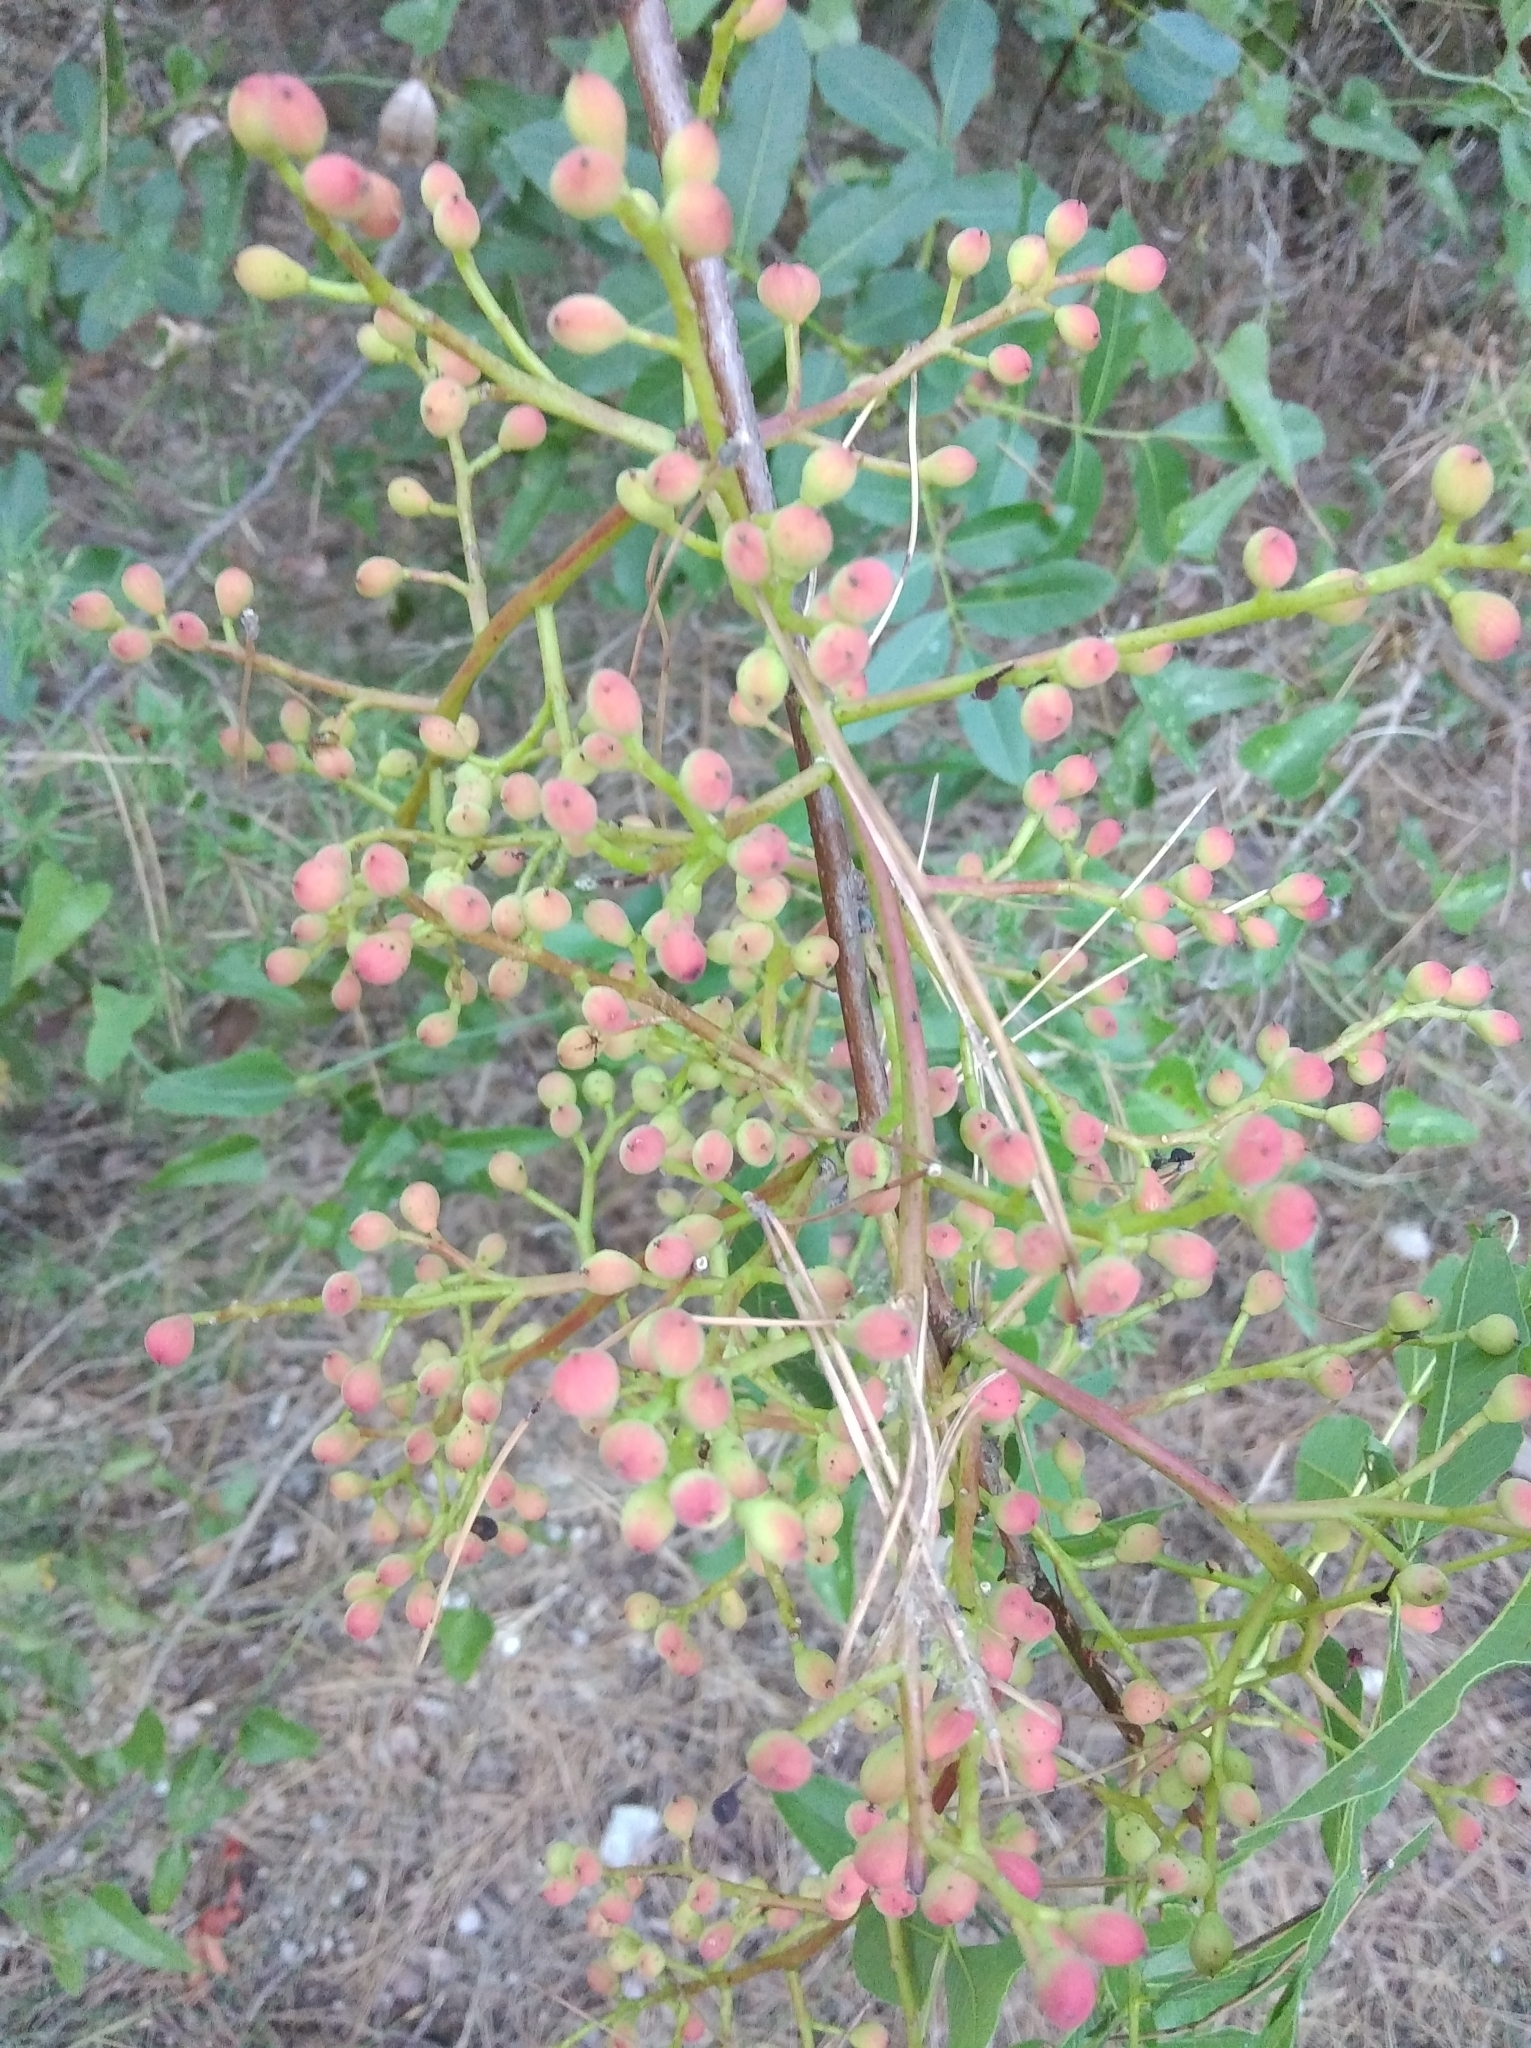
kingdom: Plantae
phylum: Tracheophyta
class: Magnoliopsida
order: Sapindales
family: Anacardiaceae
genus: Pistacia
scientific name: Pistacia terebinthus
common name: Terebinth
